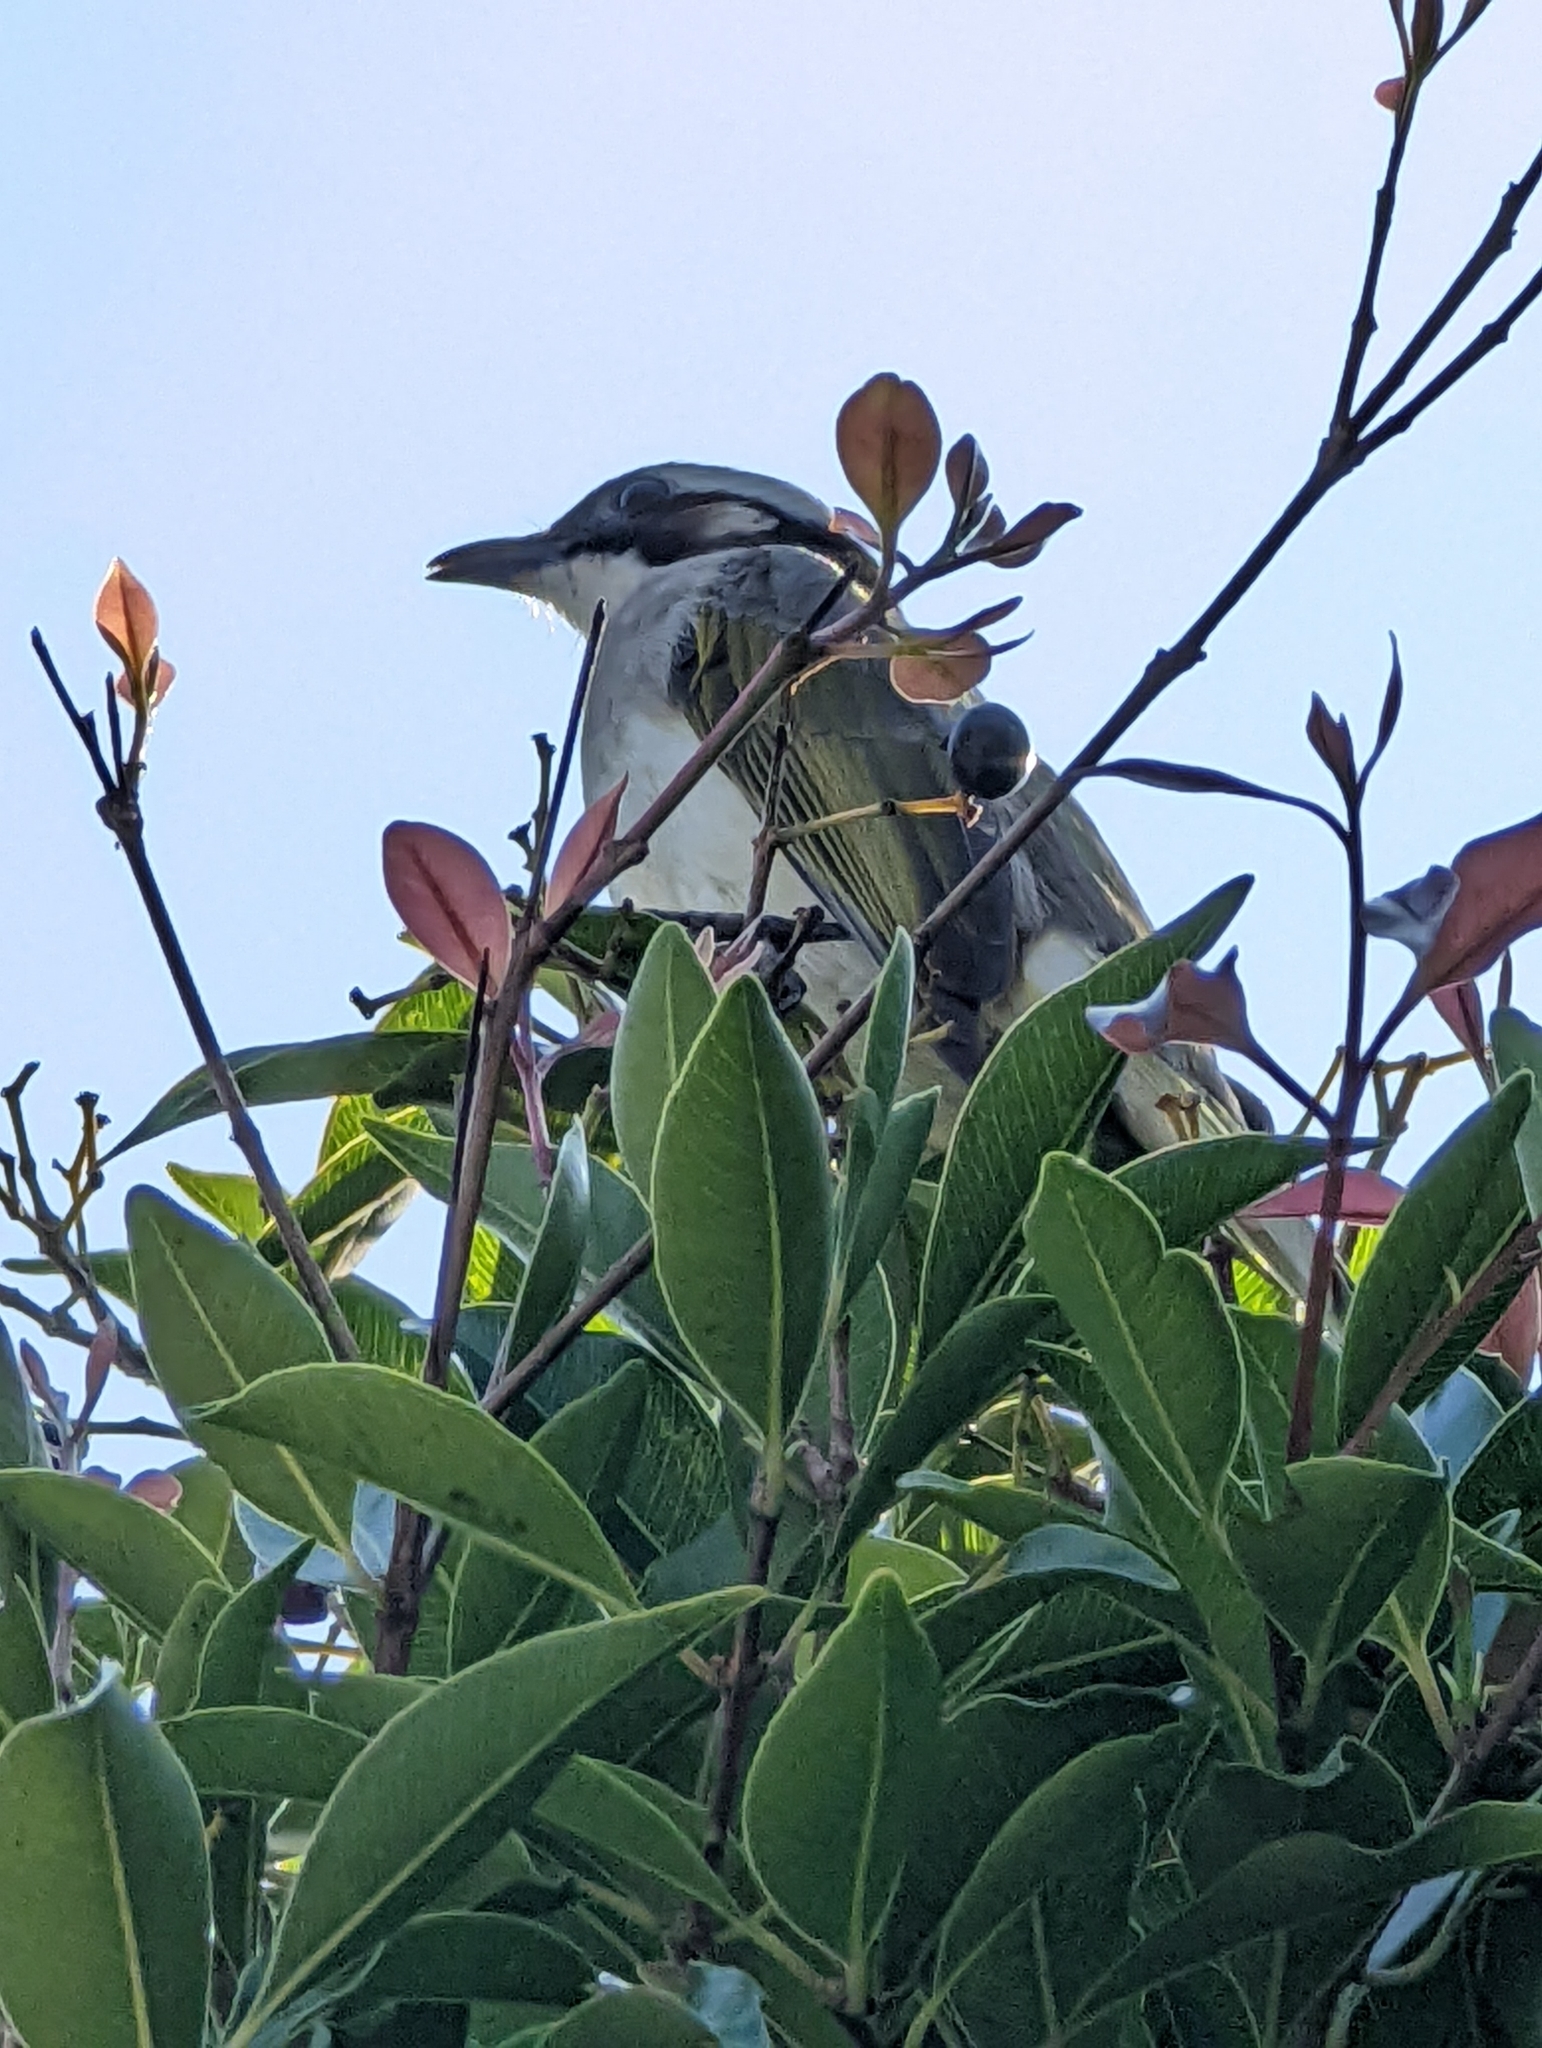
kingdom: Animalia
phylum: Chordata
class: Aves
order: Passeriformes
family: Pycnonotidae
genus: Pycnonotus
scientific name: Pycnonotus sinensis
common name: Light-vented bulbul
